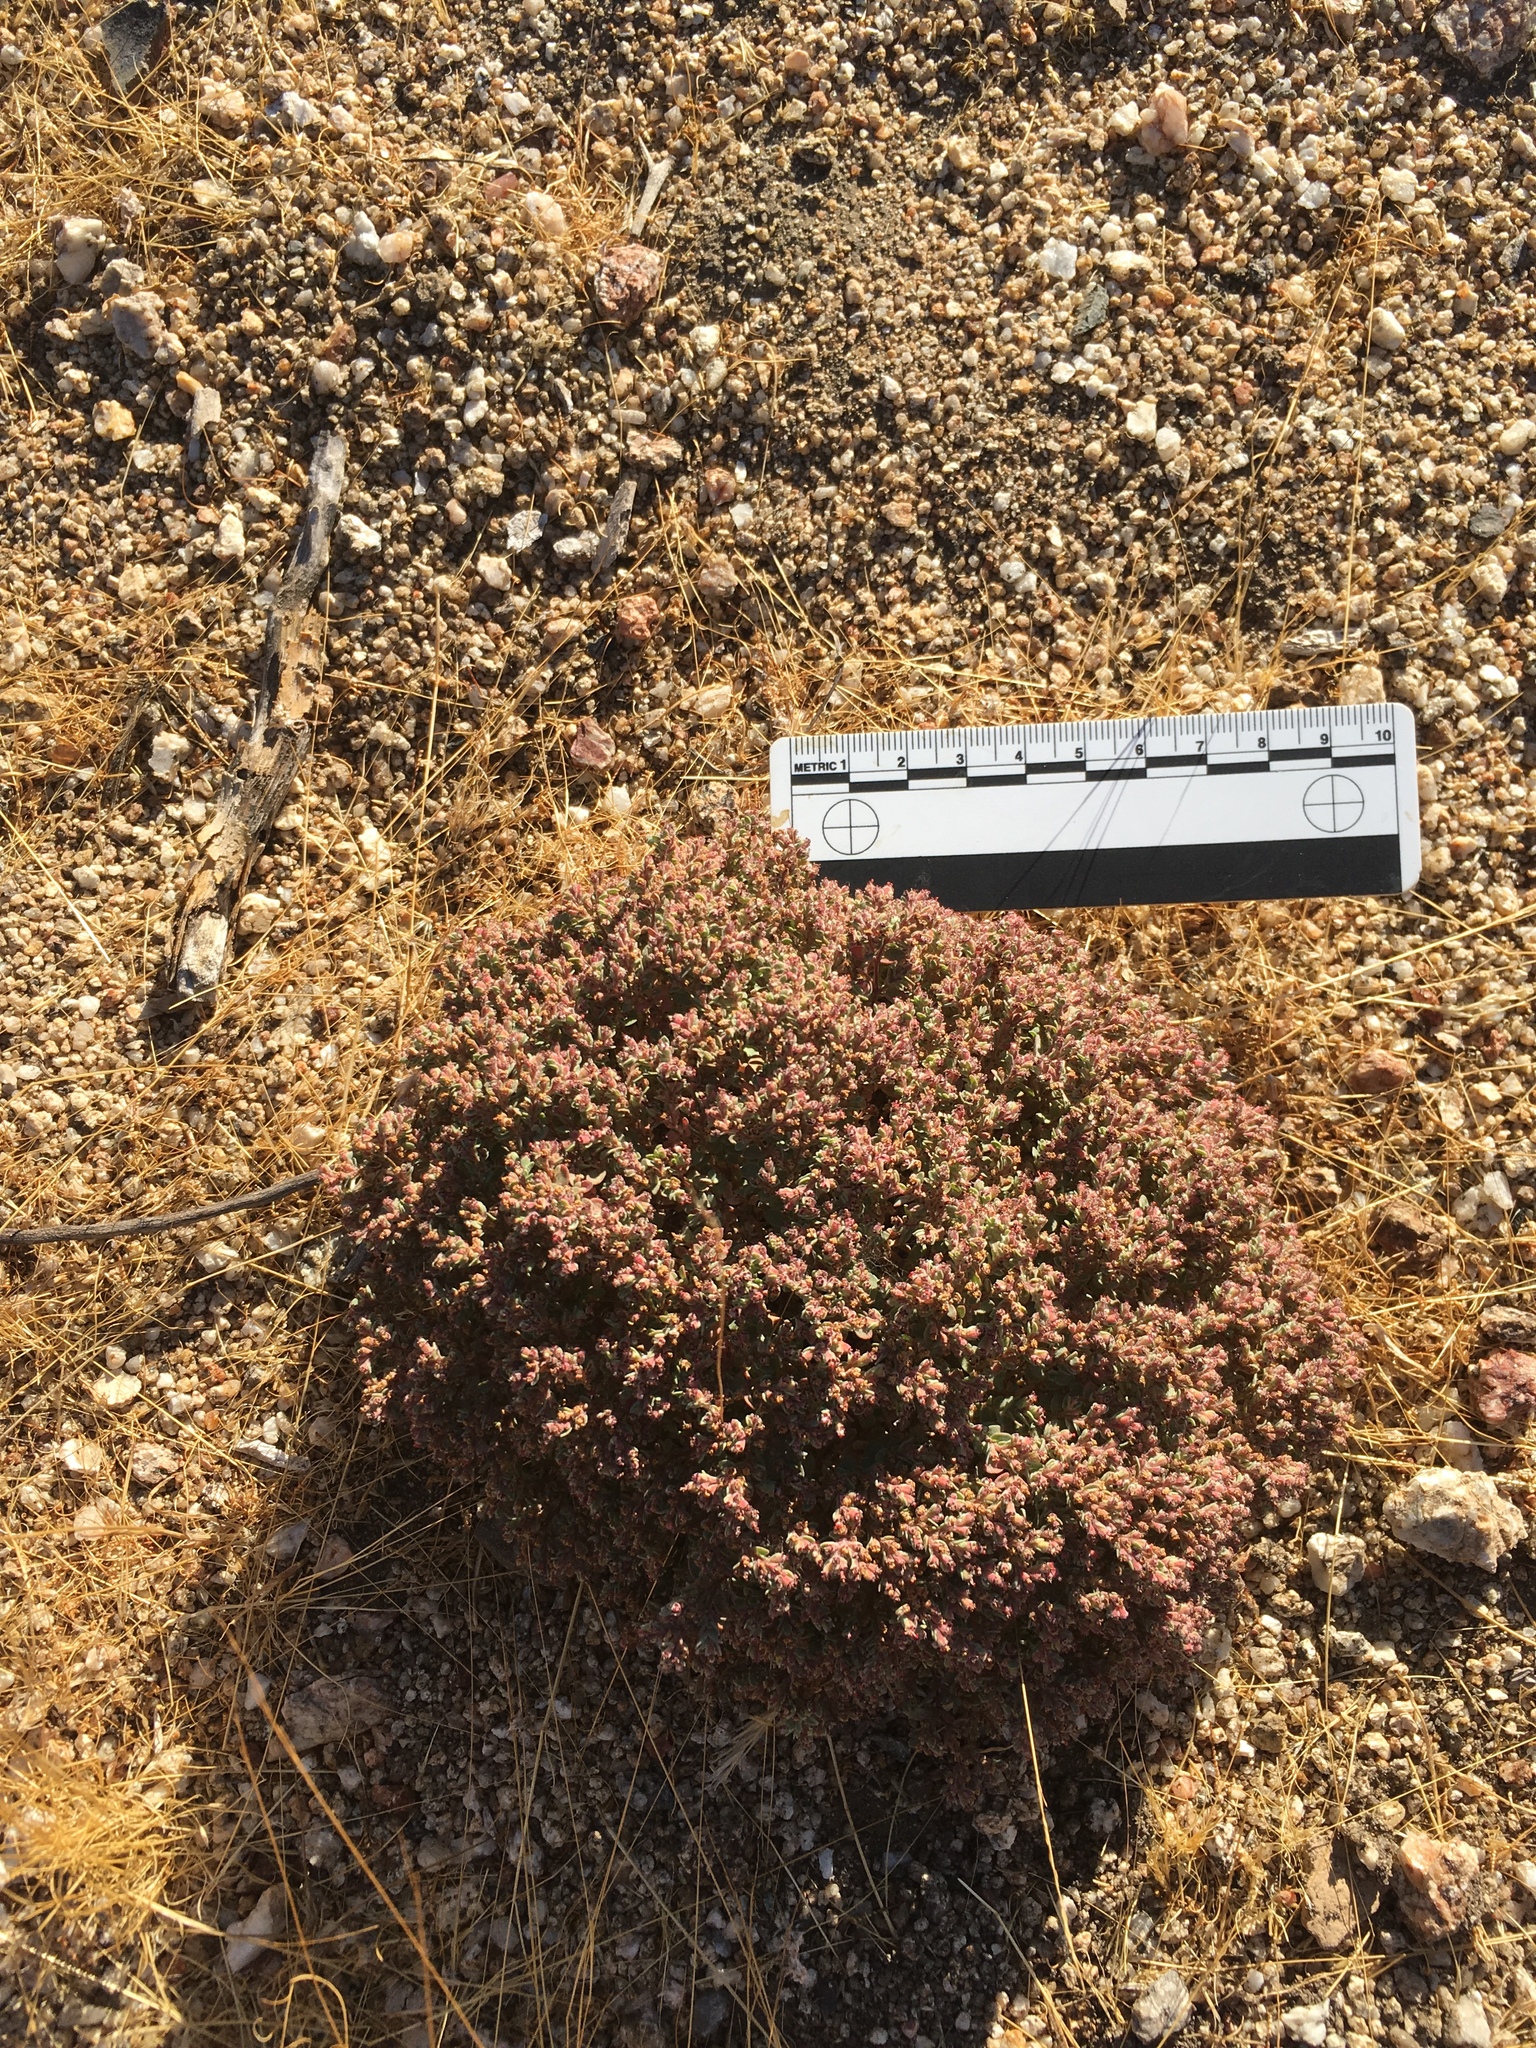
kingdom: Plantae
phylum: Tracheophyta
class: Magnoliopsida
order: Malpighiales
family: Euphorbiaceae
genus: Euphorbia
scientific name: Euphorbia melanadenia
